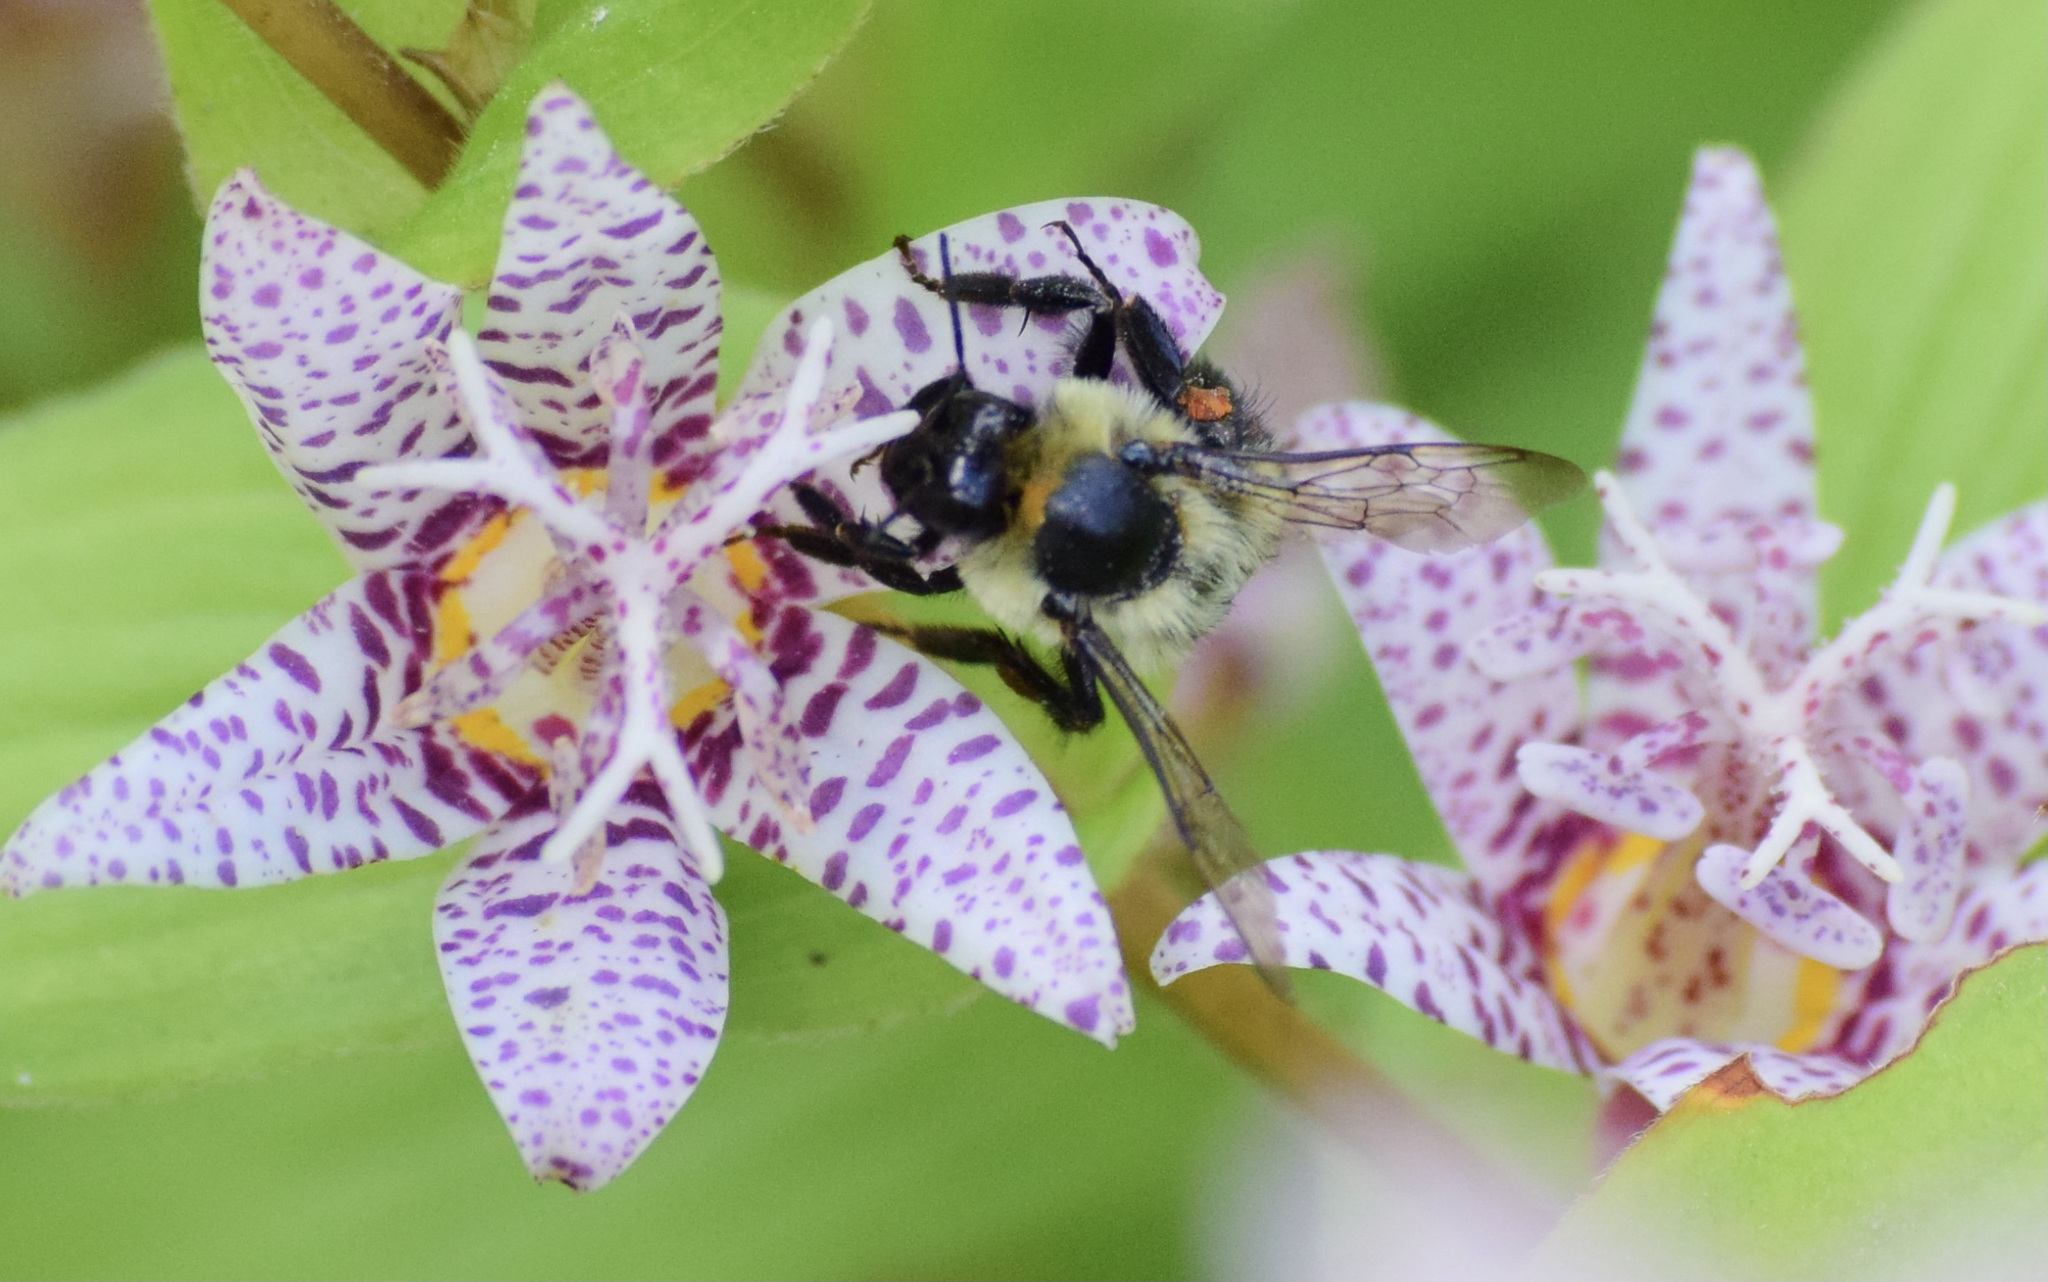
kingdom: Animalia
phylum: Arthropoda
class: Insecta
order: Hymenoptera
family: Apidae
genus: Bombus
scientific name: Bombus impatiens
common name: Common eastern bumble bee
